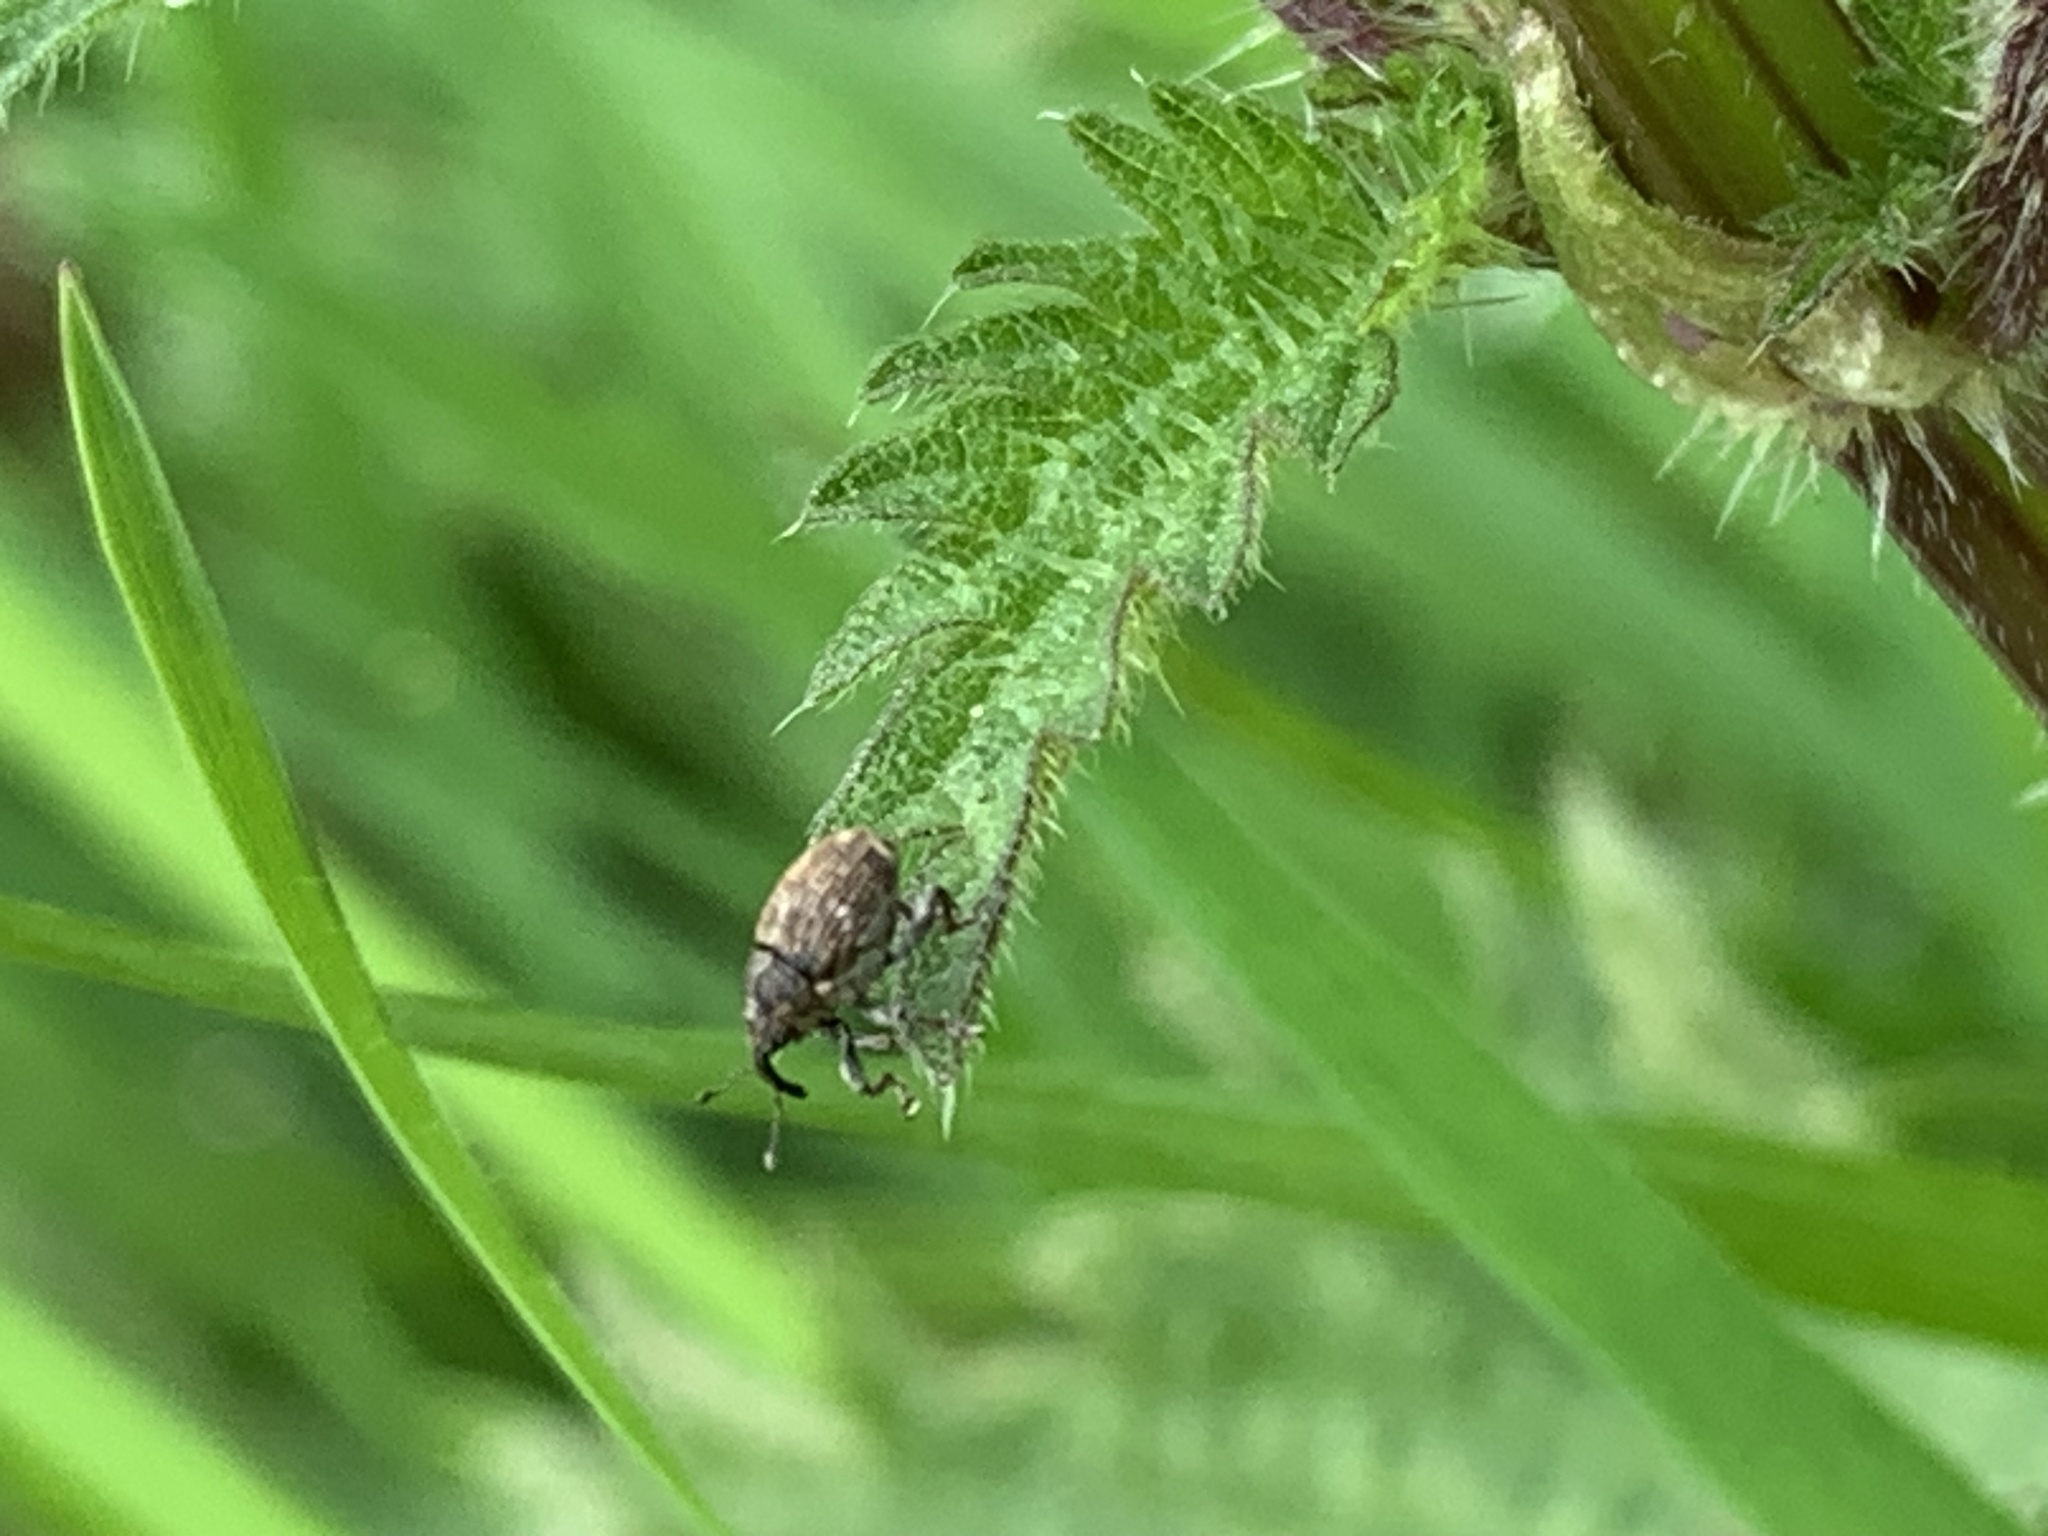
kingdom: Animalia
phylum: Arthropoda
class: Insecta
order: Coleoptera
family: Curculionidae
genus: Nedyus
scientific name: Nedyus quadrimaculatus
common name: Small nettle weevil
